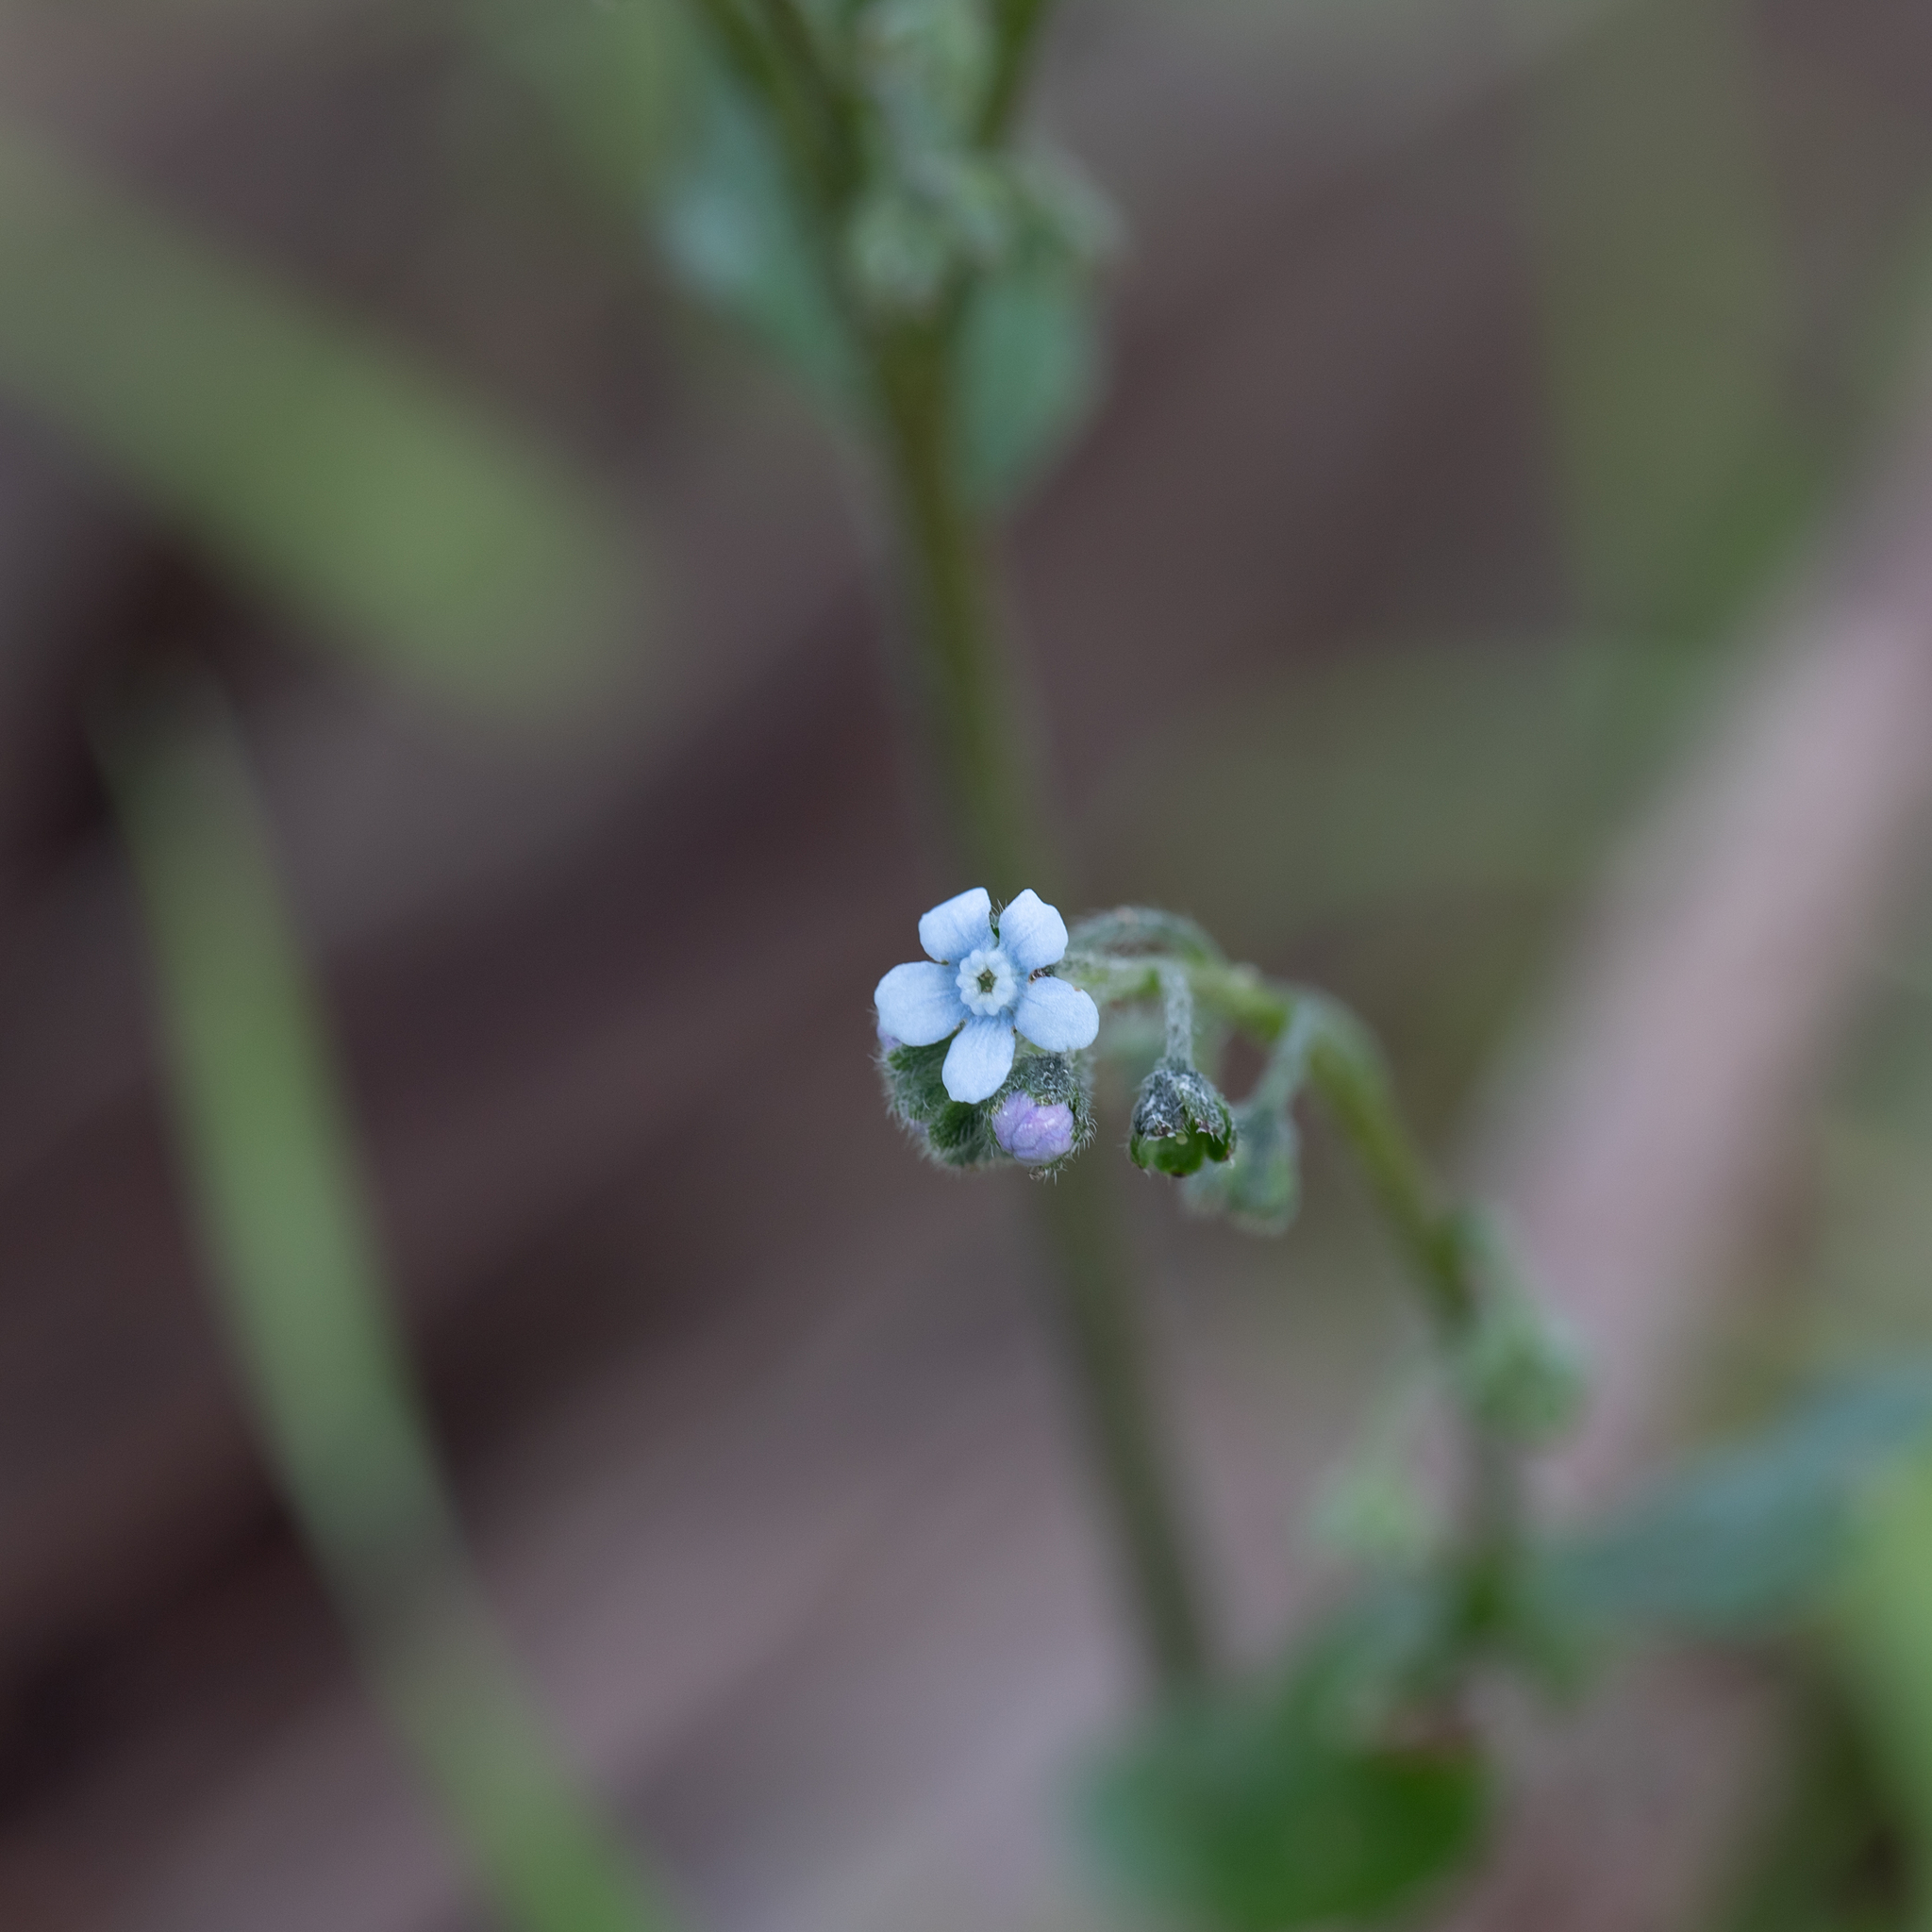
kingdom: Plantae
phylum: Tracheophyta
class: Magnoliopsida
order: Boraginales
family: Boraginaceae
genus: Cynoglossum
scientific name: Cynoglossum australe
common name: Australian hound's-tongue
